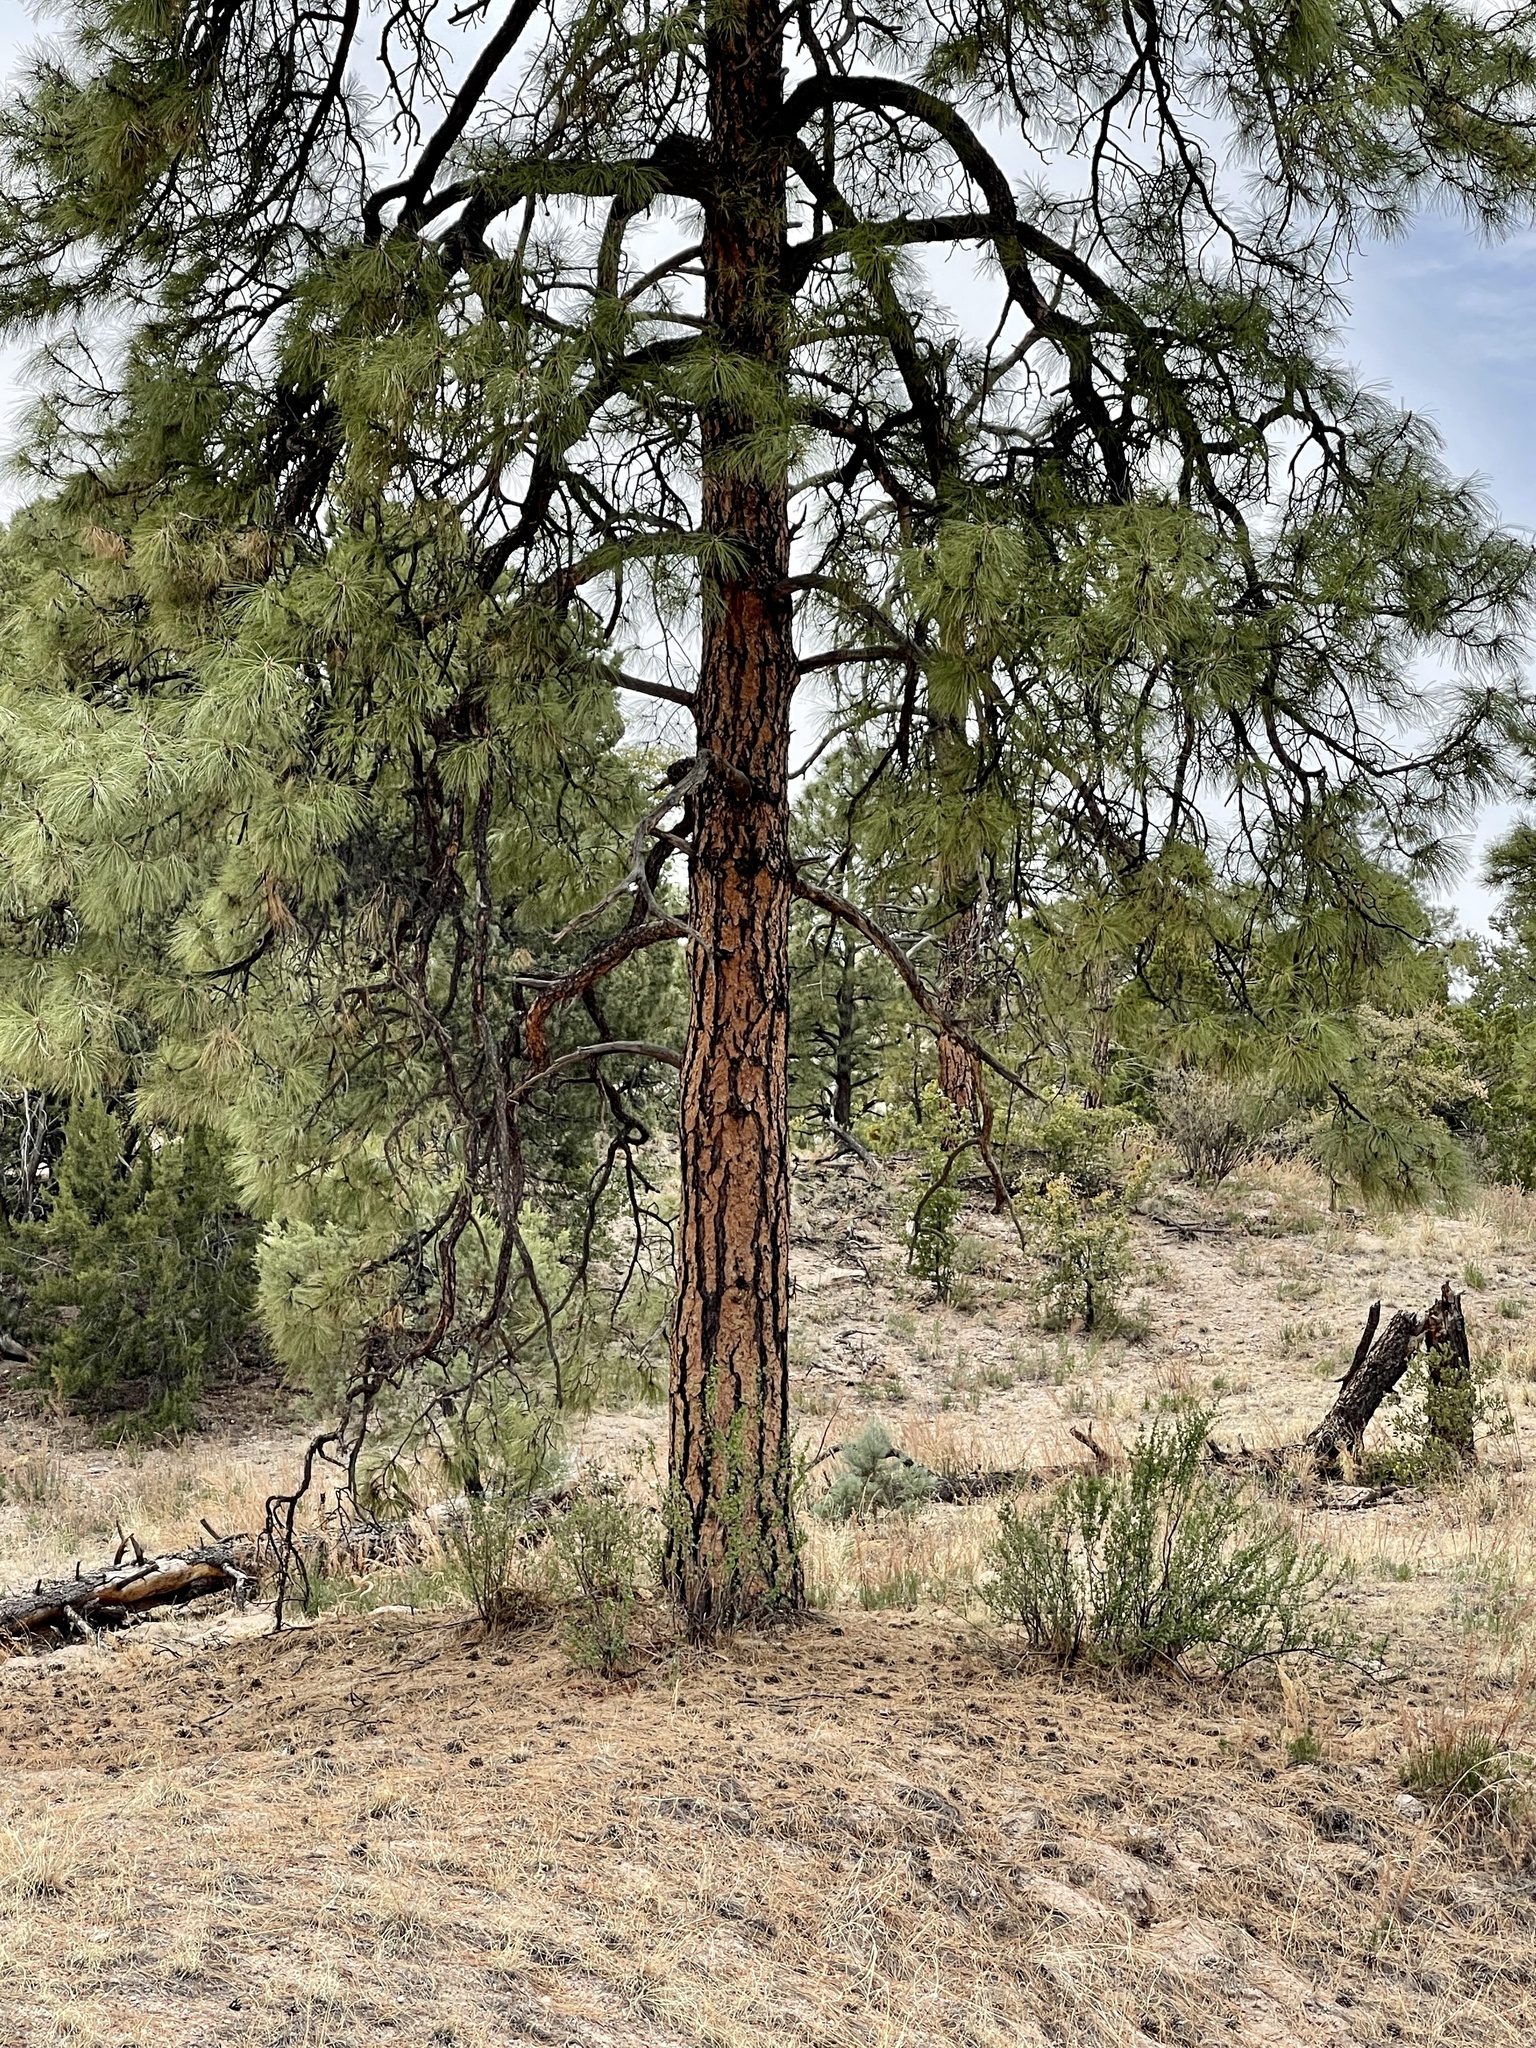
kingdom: Plantae
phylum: Tracheophyta
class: Pinopsida
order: Pinales
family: Pinaceae
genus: Pinus
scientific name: Pinus ponderosa
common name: Western yellow-pine
